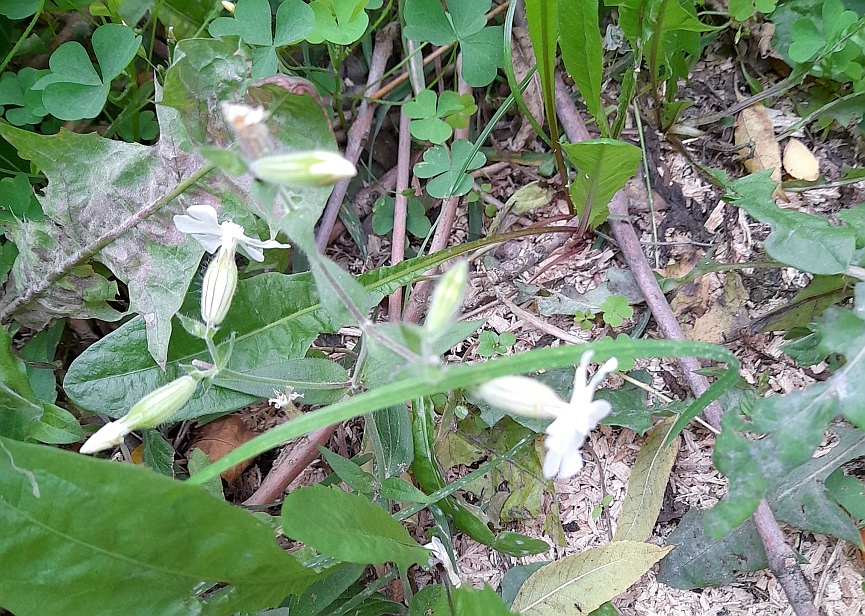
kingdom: Plantae
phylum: Tracheophyta
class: Magnoliopsida
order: Caryophyllales
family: Caryophyllaceae
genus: Silene
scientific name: Silene latifolia
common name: White campion
